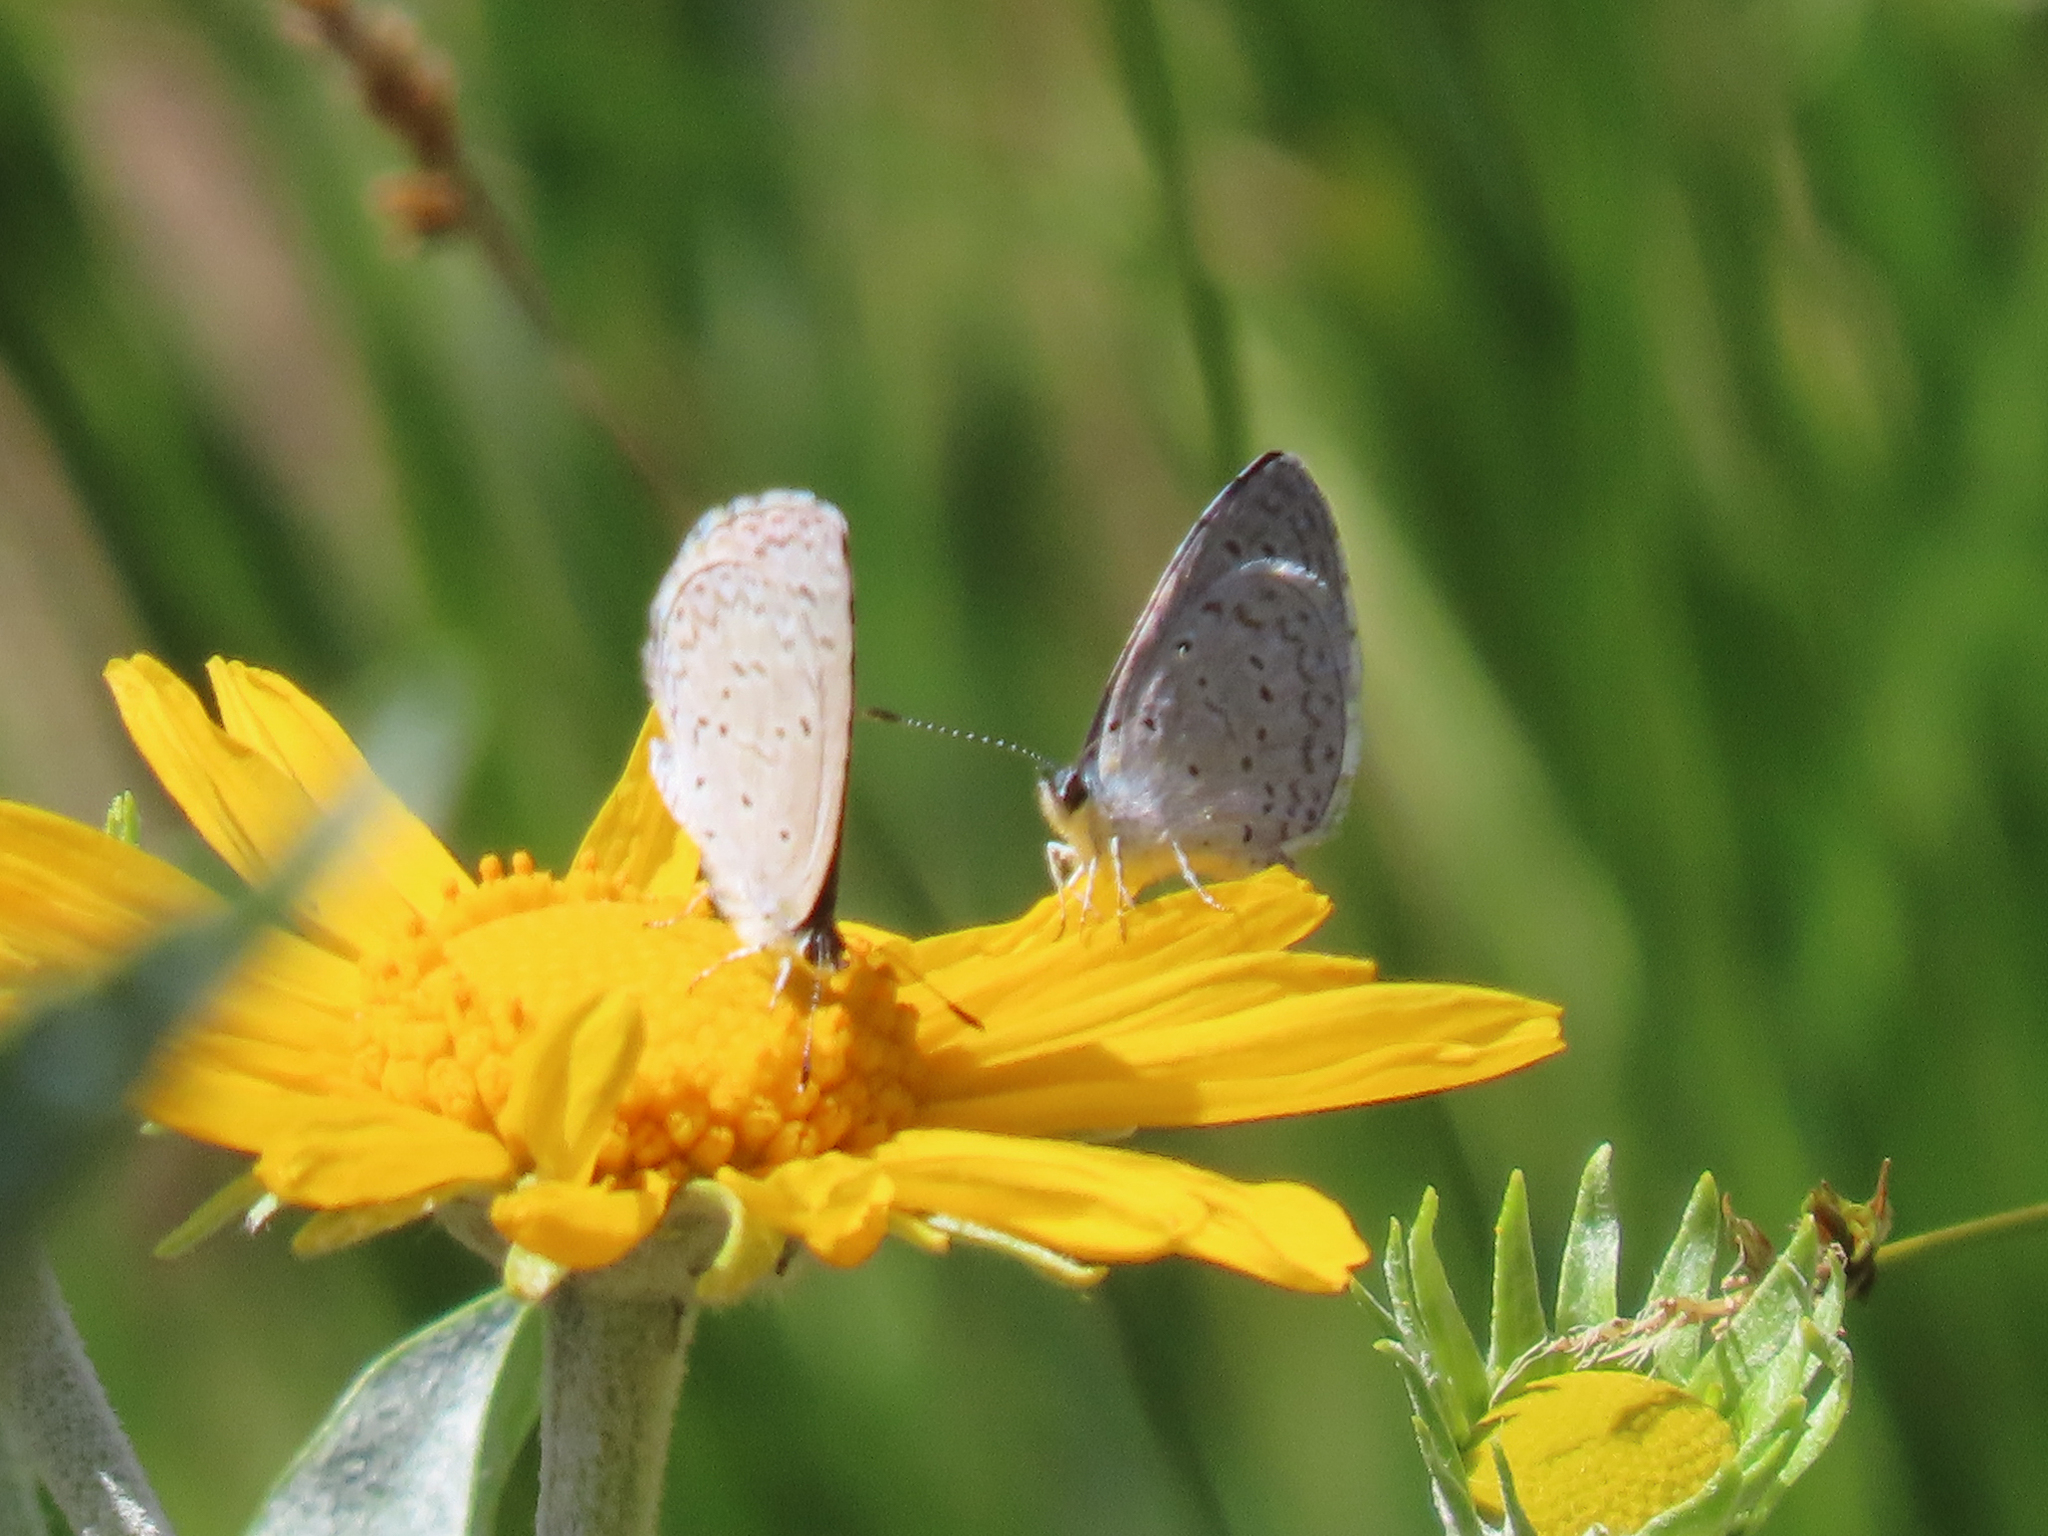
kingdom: Animalia
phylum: Arthropoda
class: Insecta
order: Lepidoptera
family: Lycaenidae
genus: Celastrina
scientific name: Celastrina ladon
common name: Spring azure
